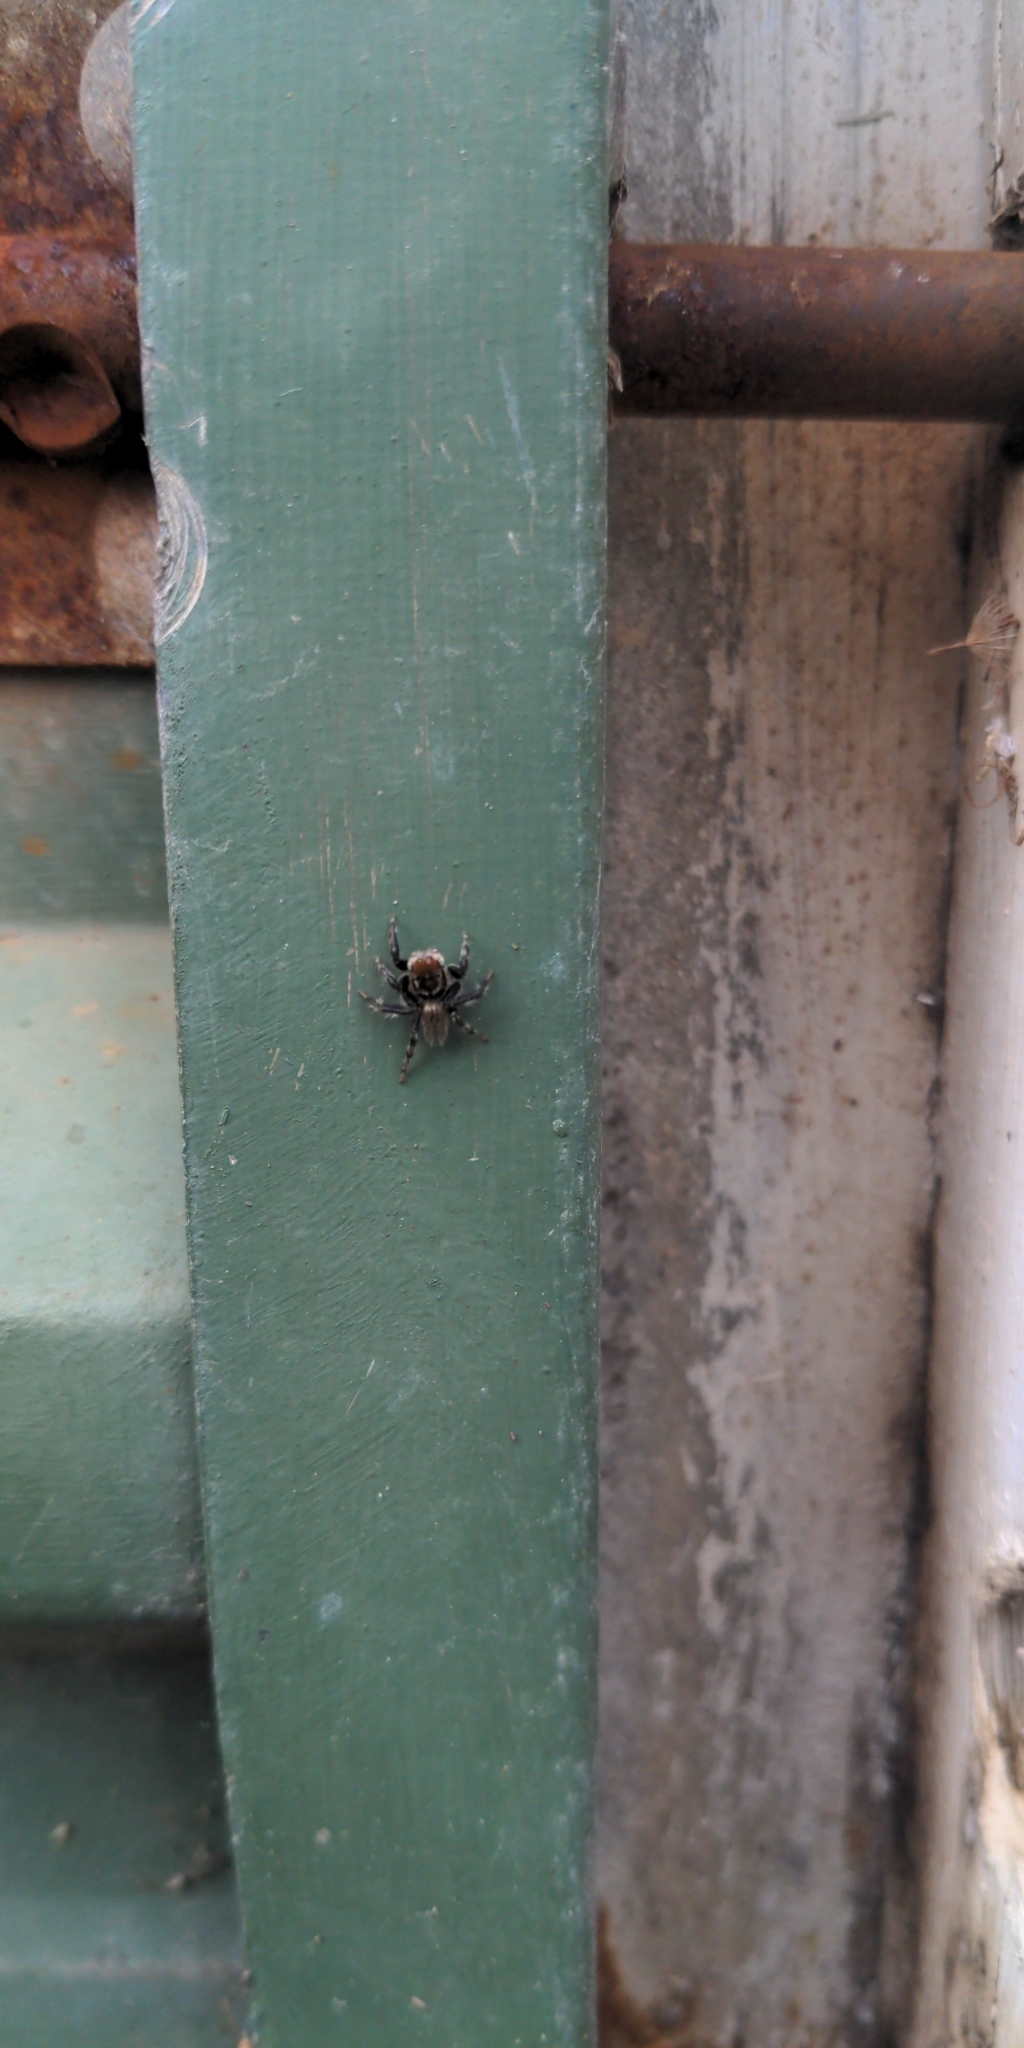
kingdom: Animalia
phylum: Arthropoda
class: Arachnida
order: Araneae
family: Salticidae
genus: Maratus
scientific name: Maratus griseus
